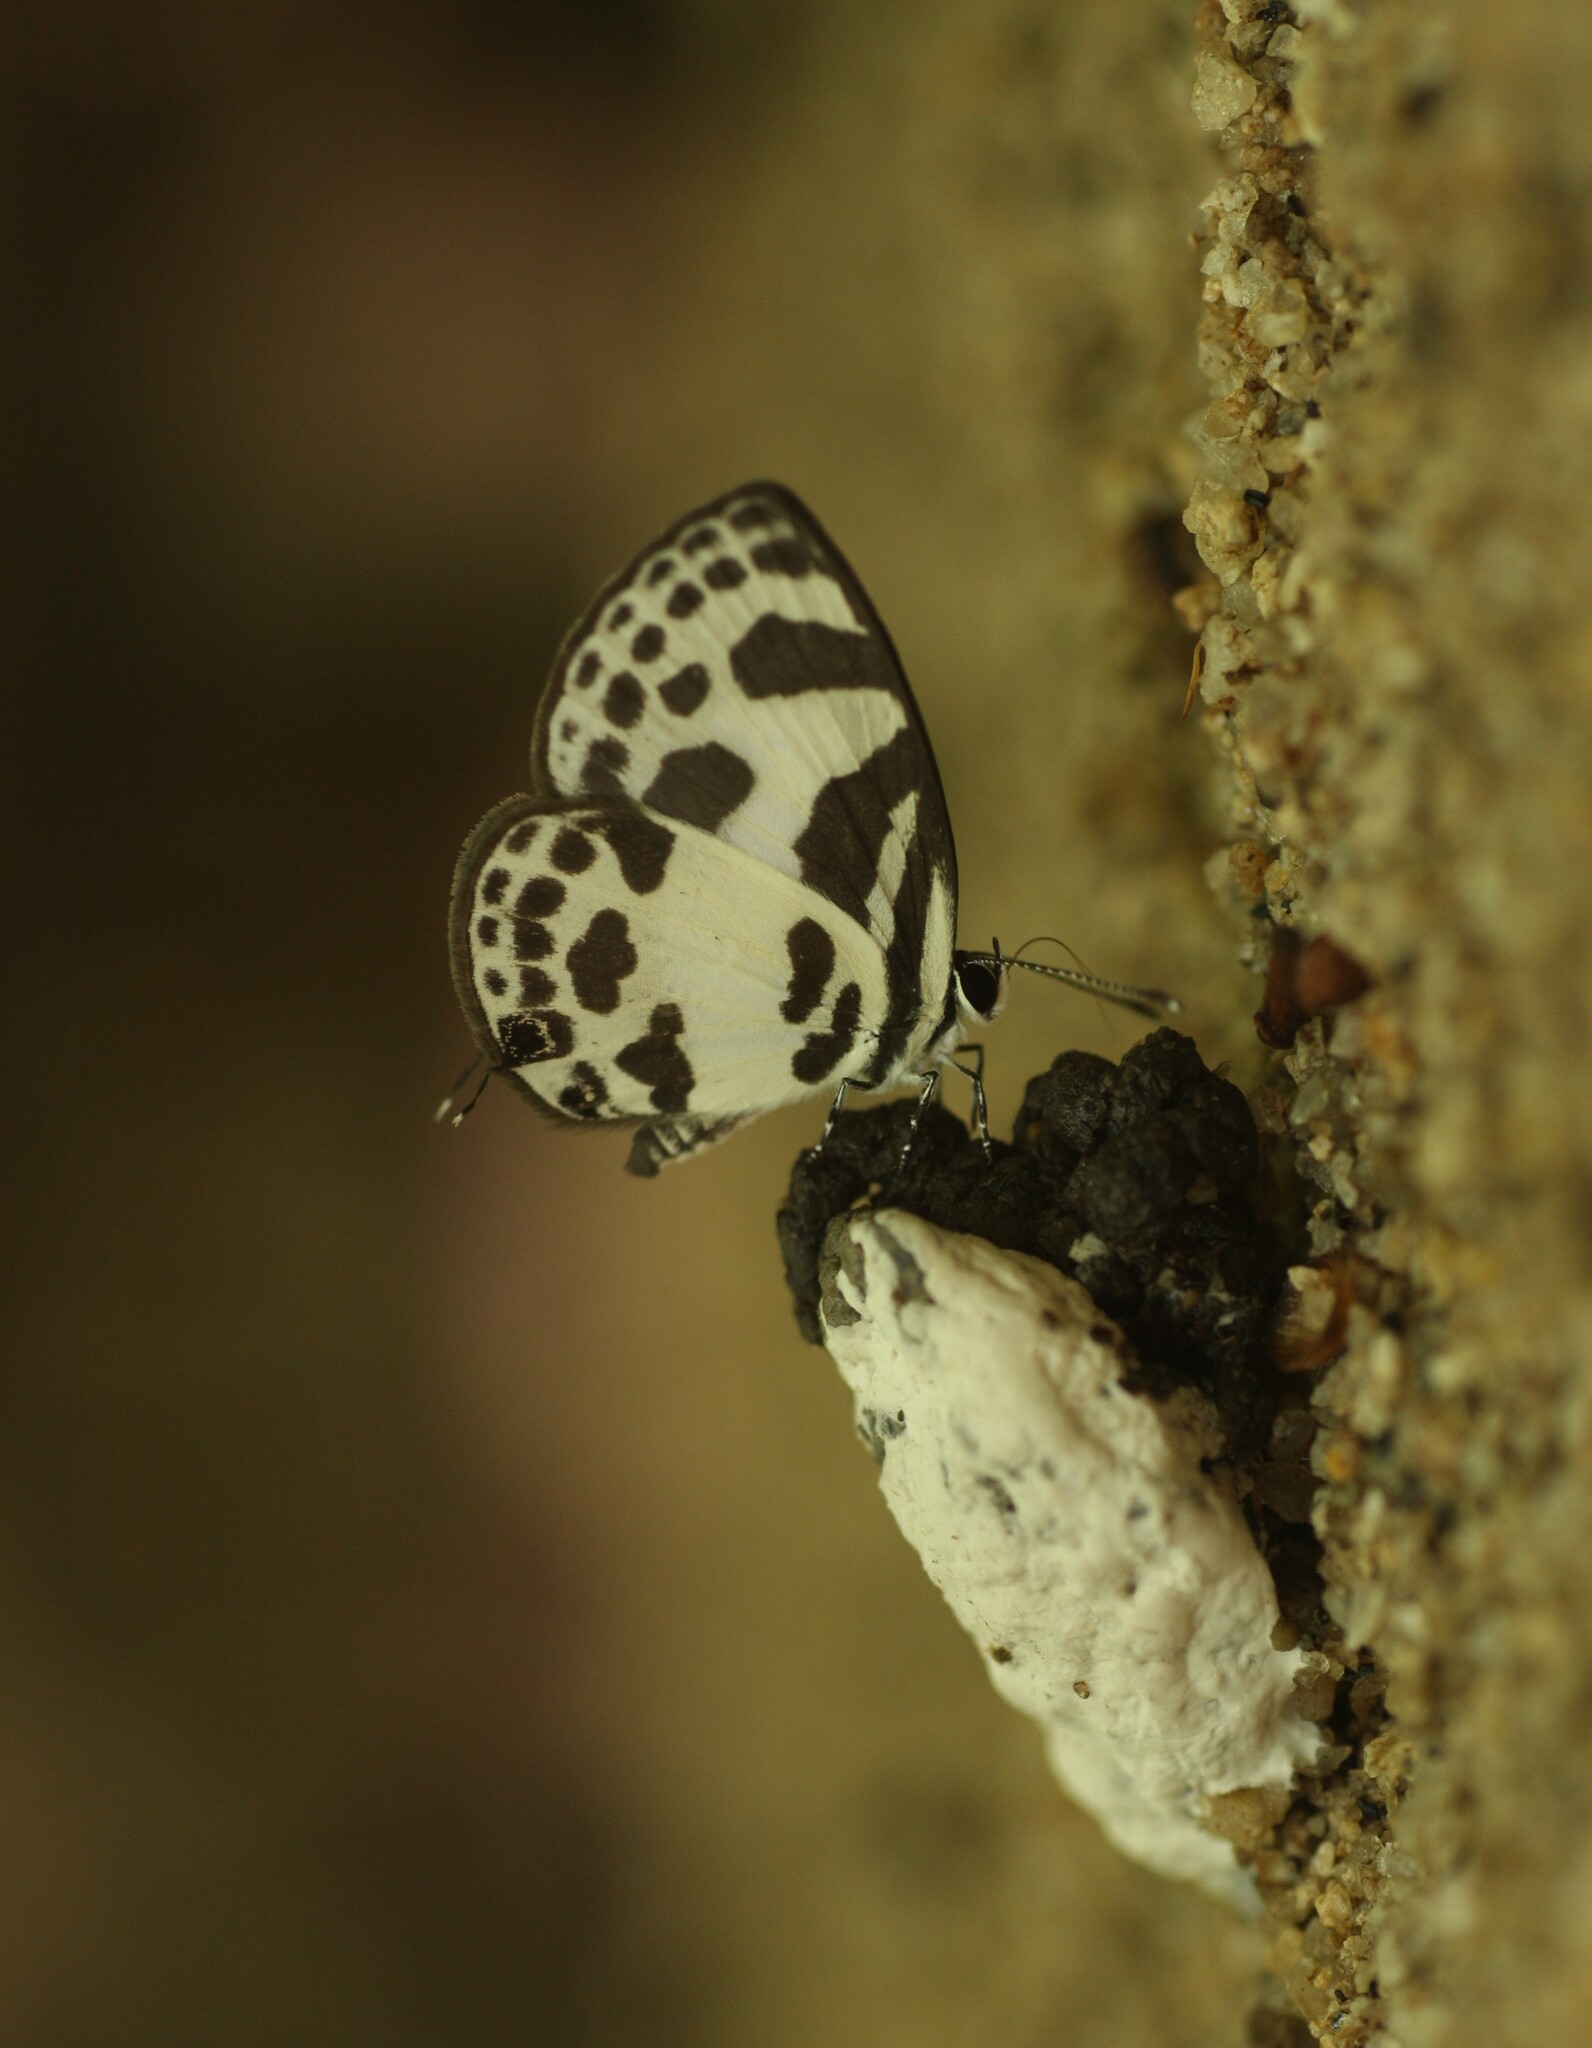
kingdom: Animalia
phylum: Arthropoda
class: Insecta
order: Lepidoptera
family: Lycaenidae
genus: Discolampa
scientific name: Discolampa ethion
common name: Banded blue pierrot
